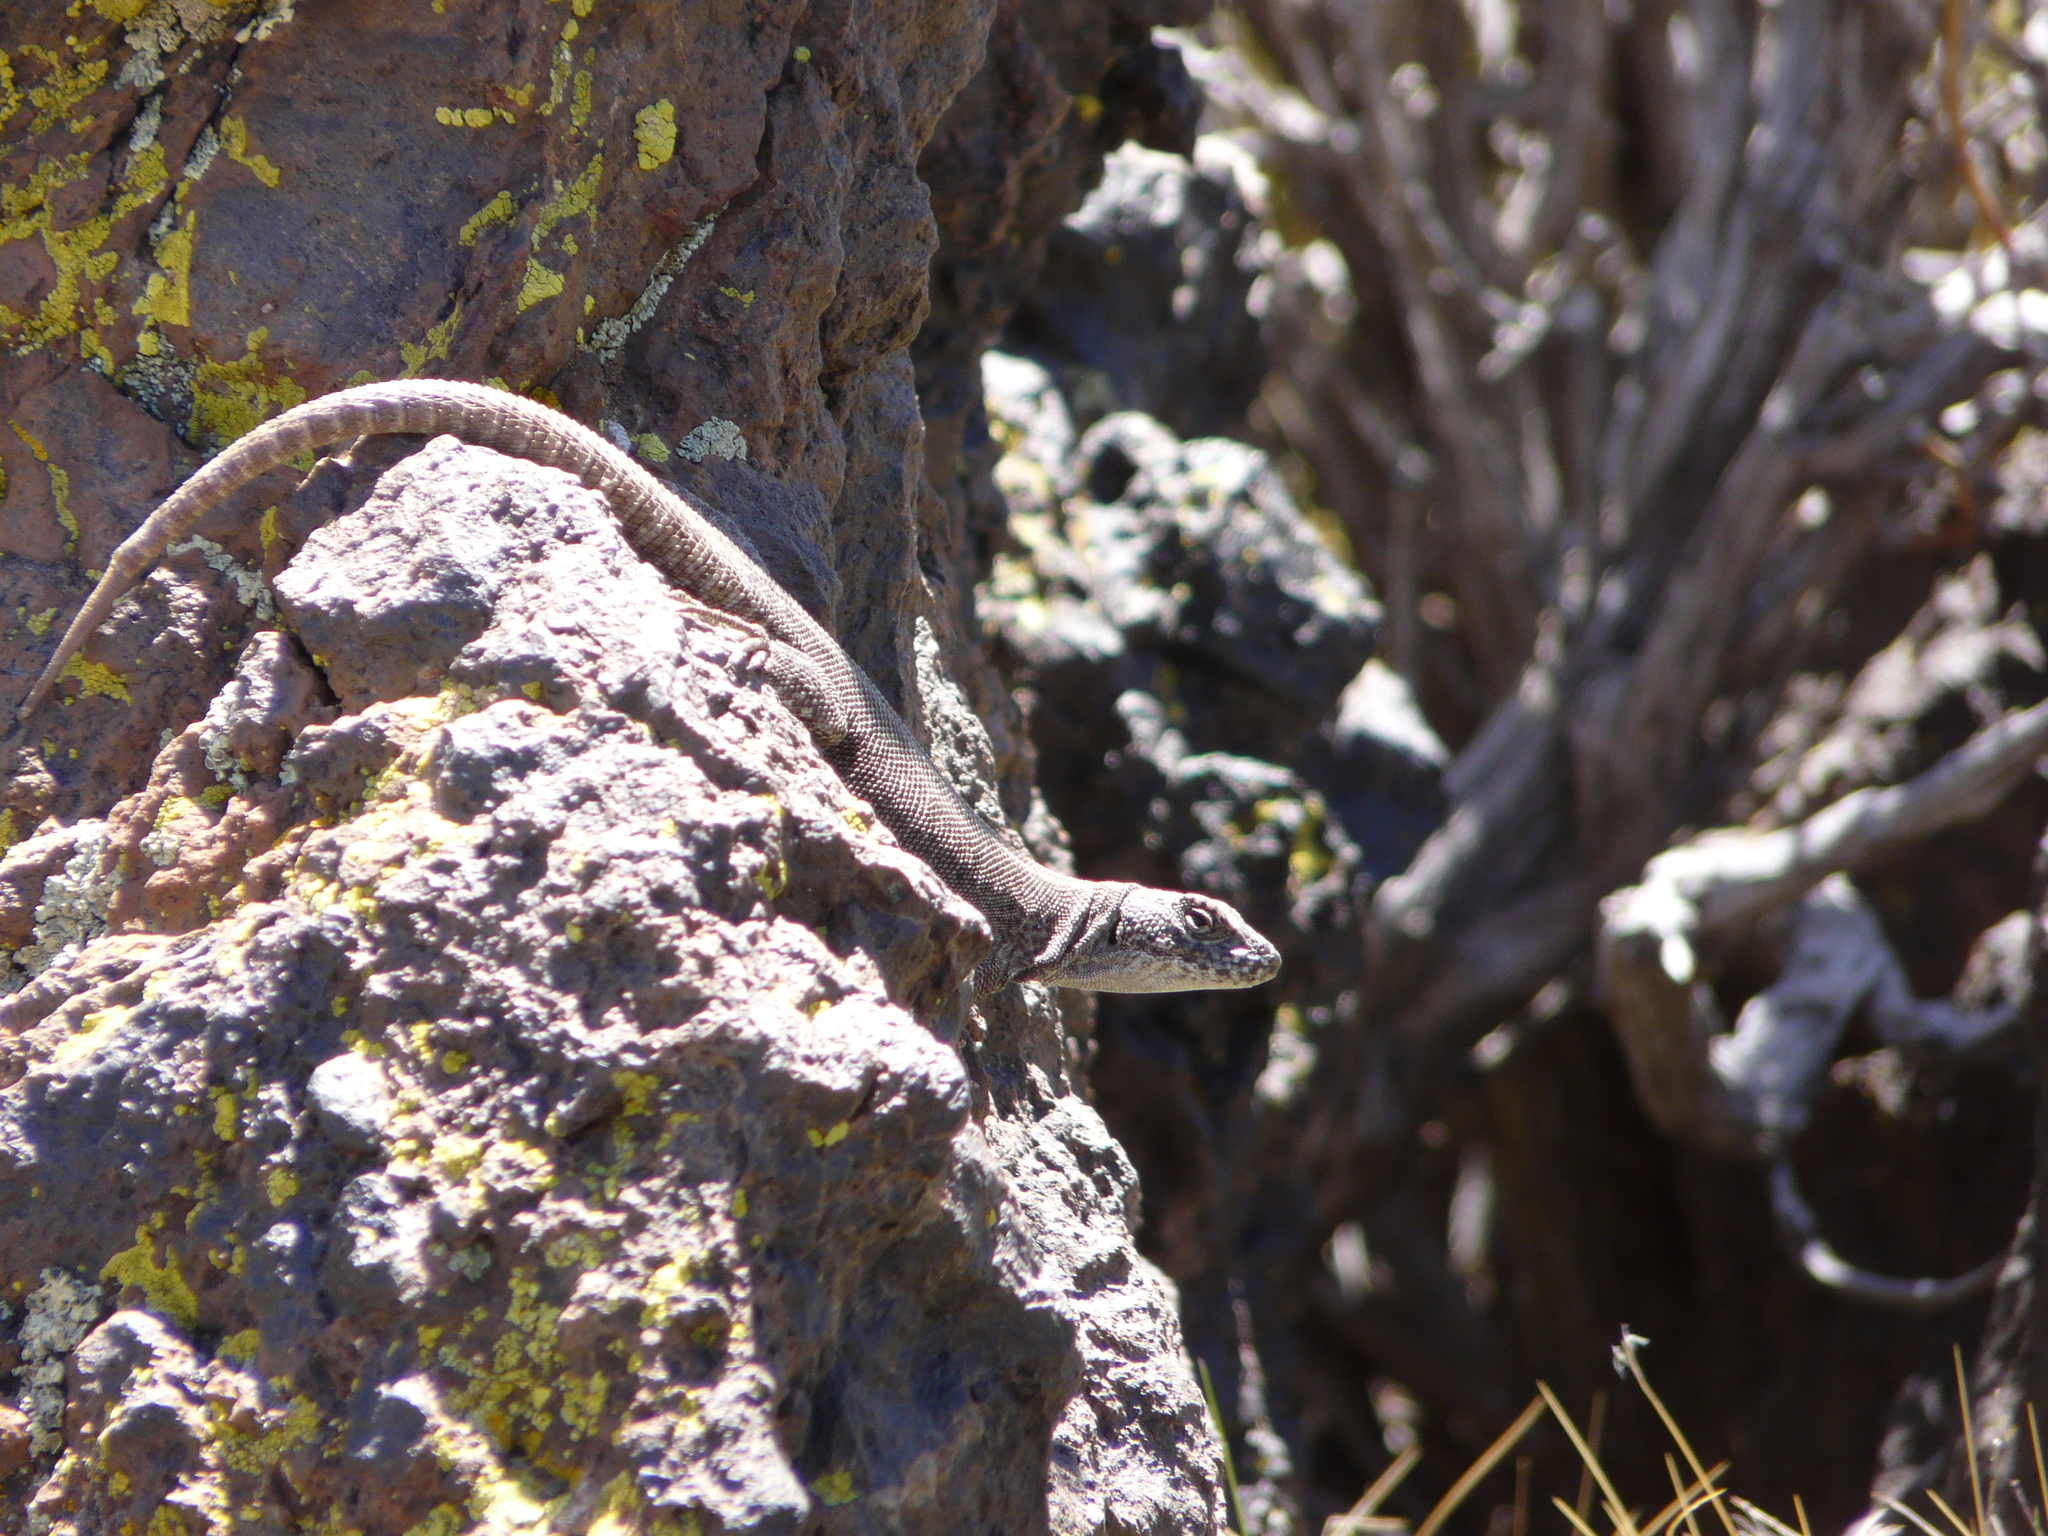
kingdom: Animalia
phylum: Chordata
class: Squamata
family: Liolaemidae
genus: Liolaemus
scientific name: Liolaemus austromendocinus
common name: Austromendocino tree iguana
